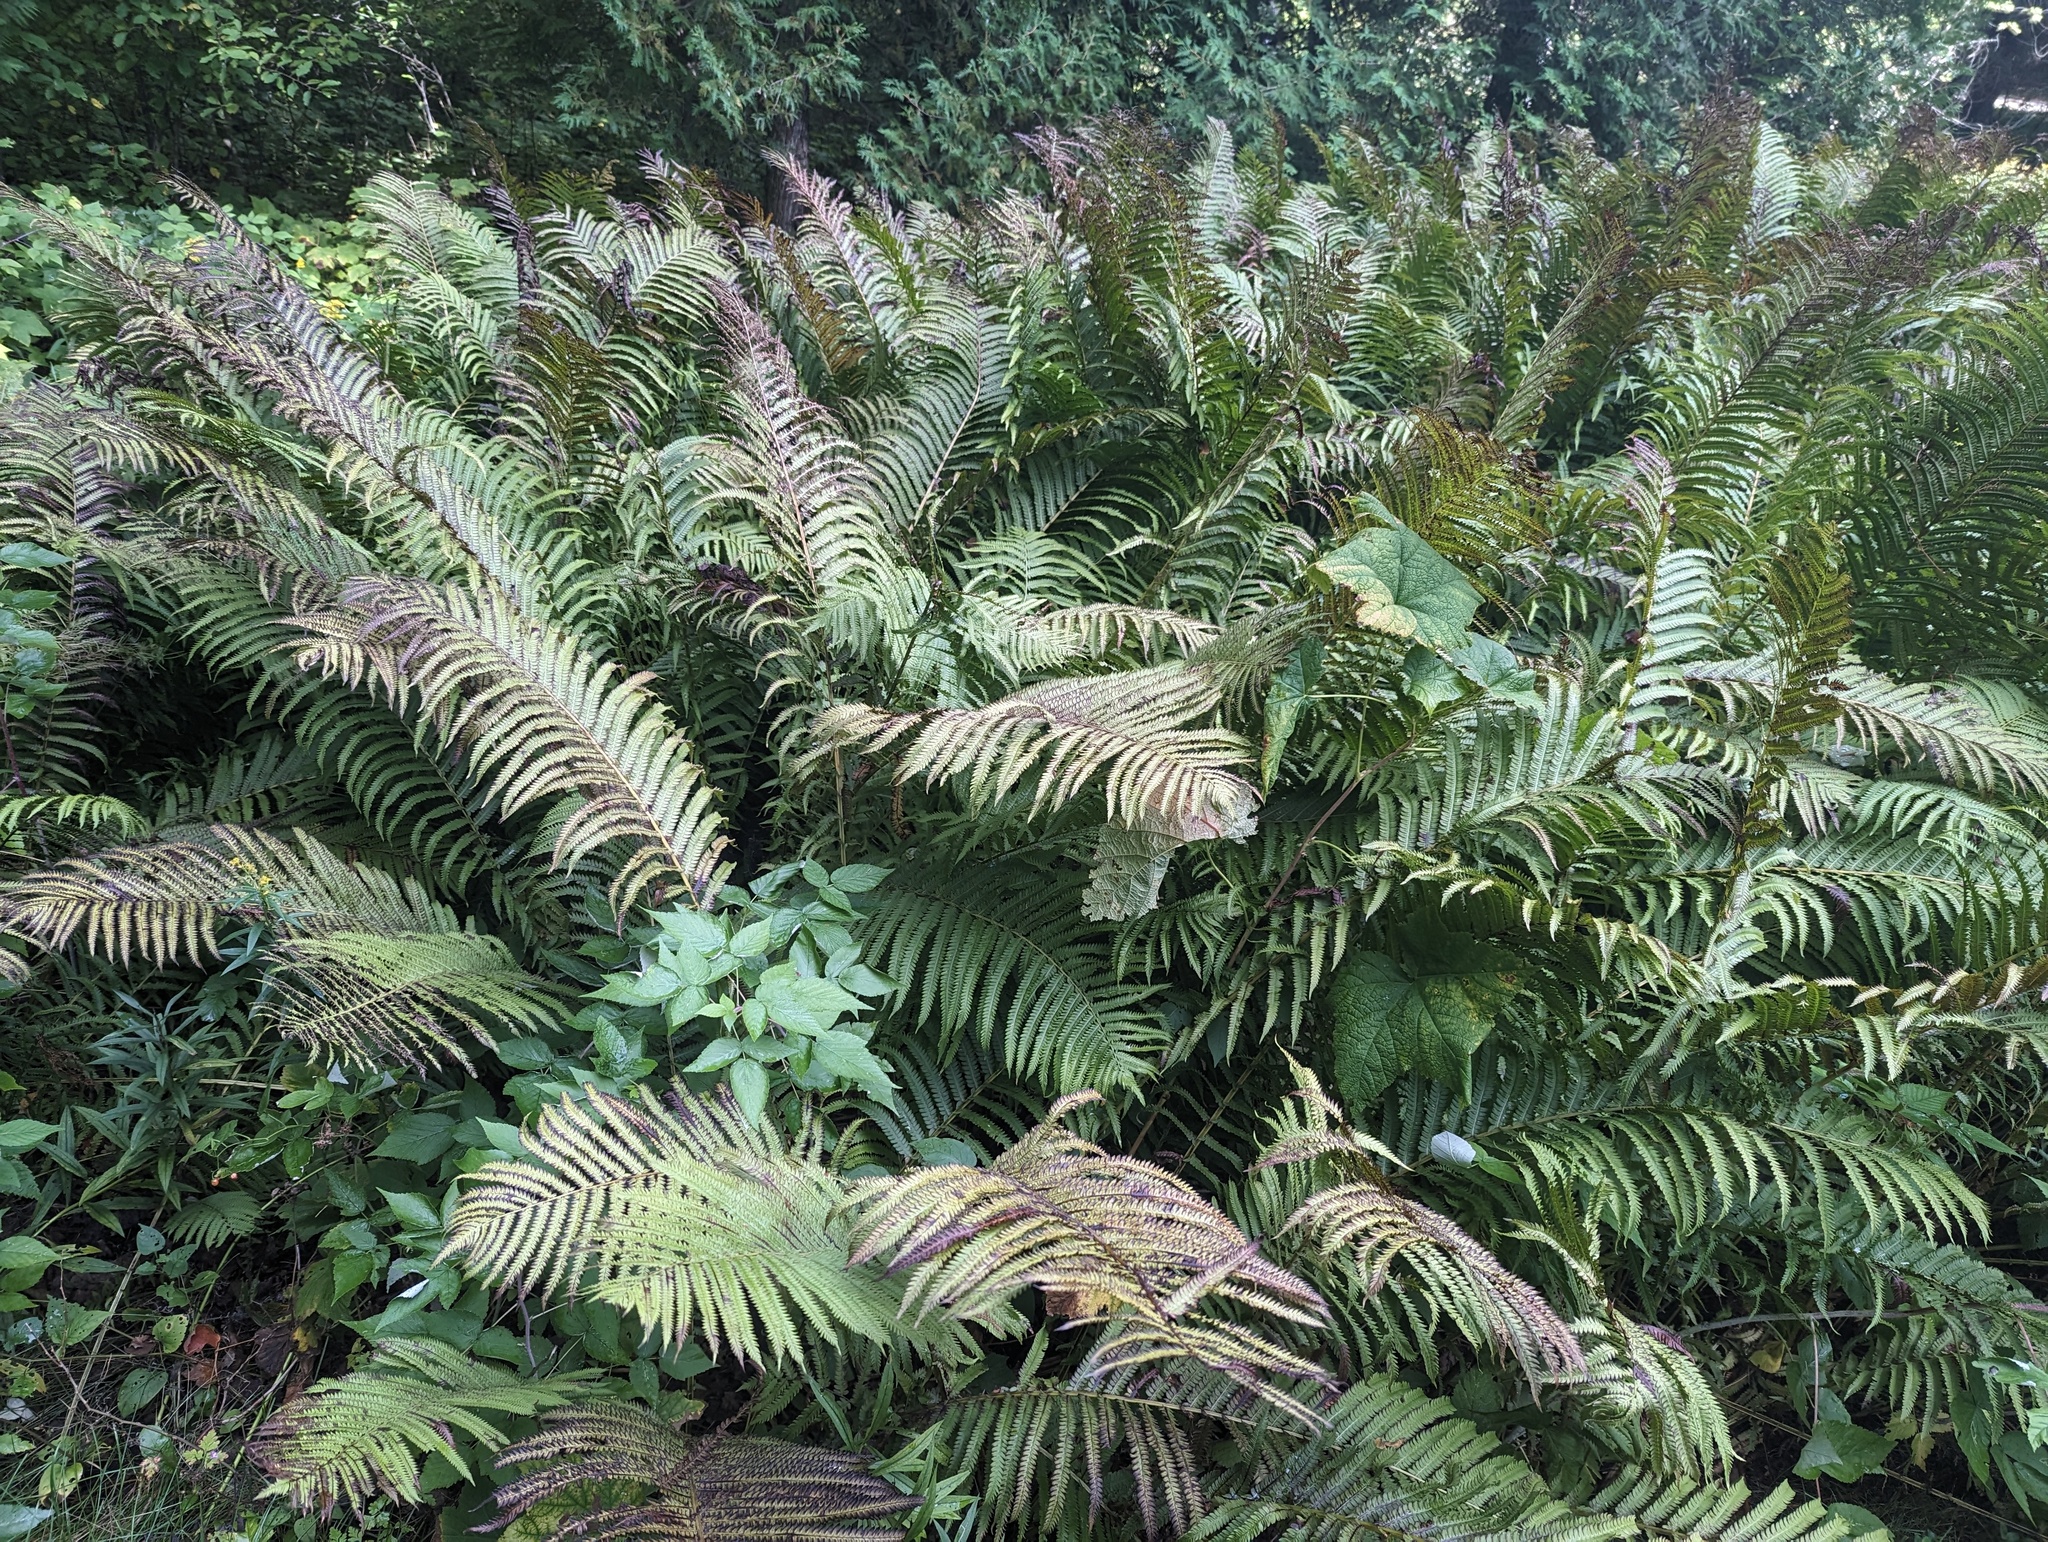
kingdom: Plantae
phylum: Tracheophyta
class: Polypodiopsida
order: Polypodiales
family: Onocleaceae
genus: Matteuccia
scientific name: Matteuccia struthiopteris
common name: Ostrich fern
